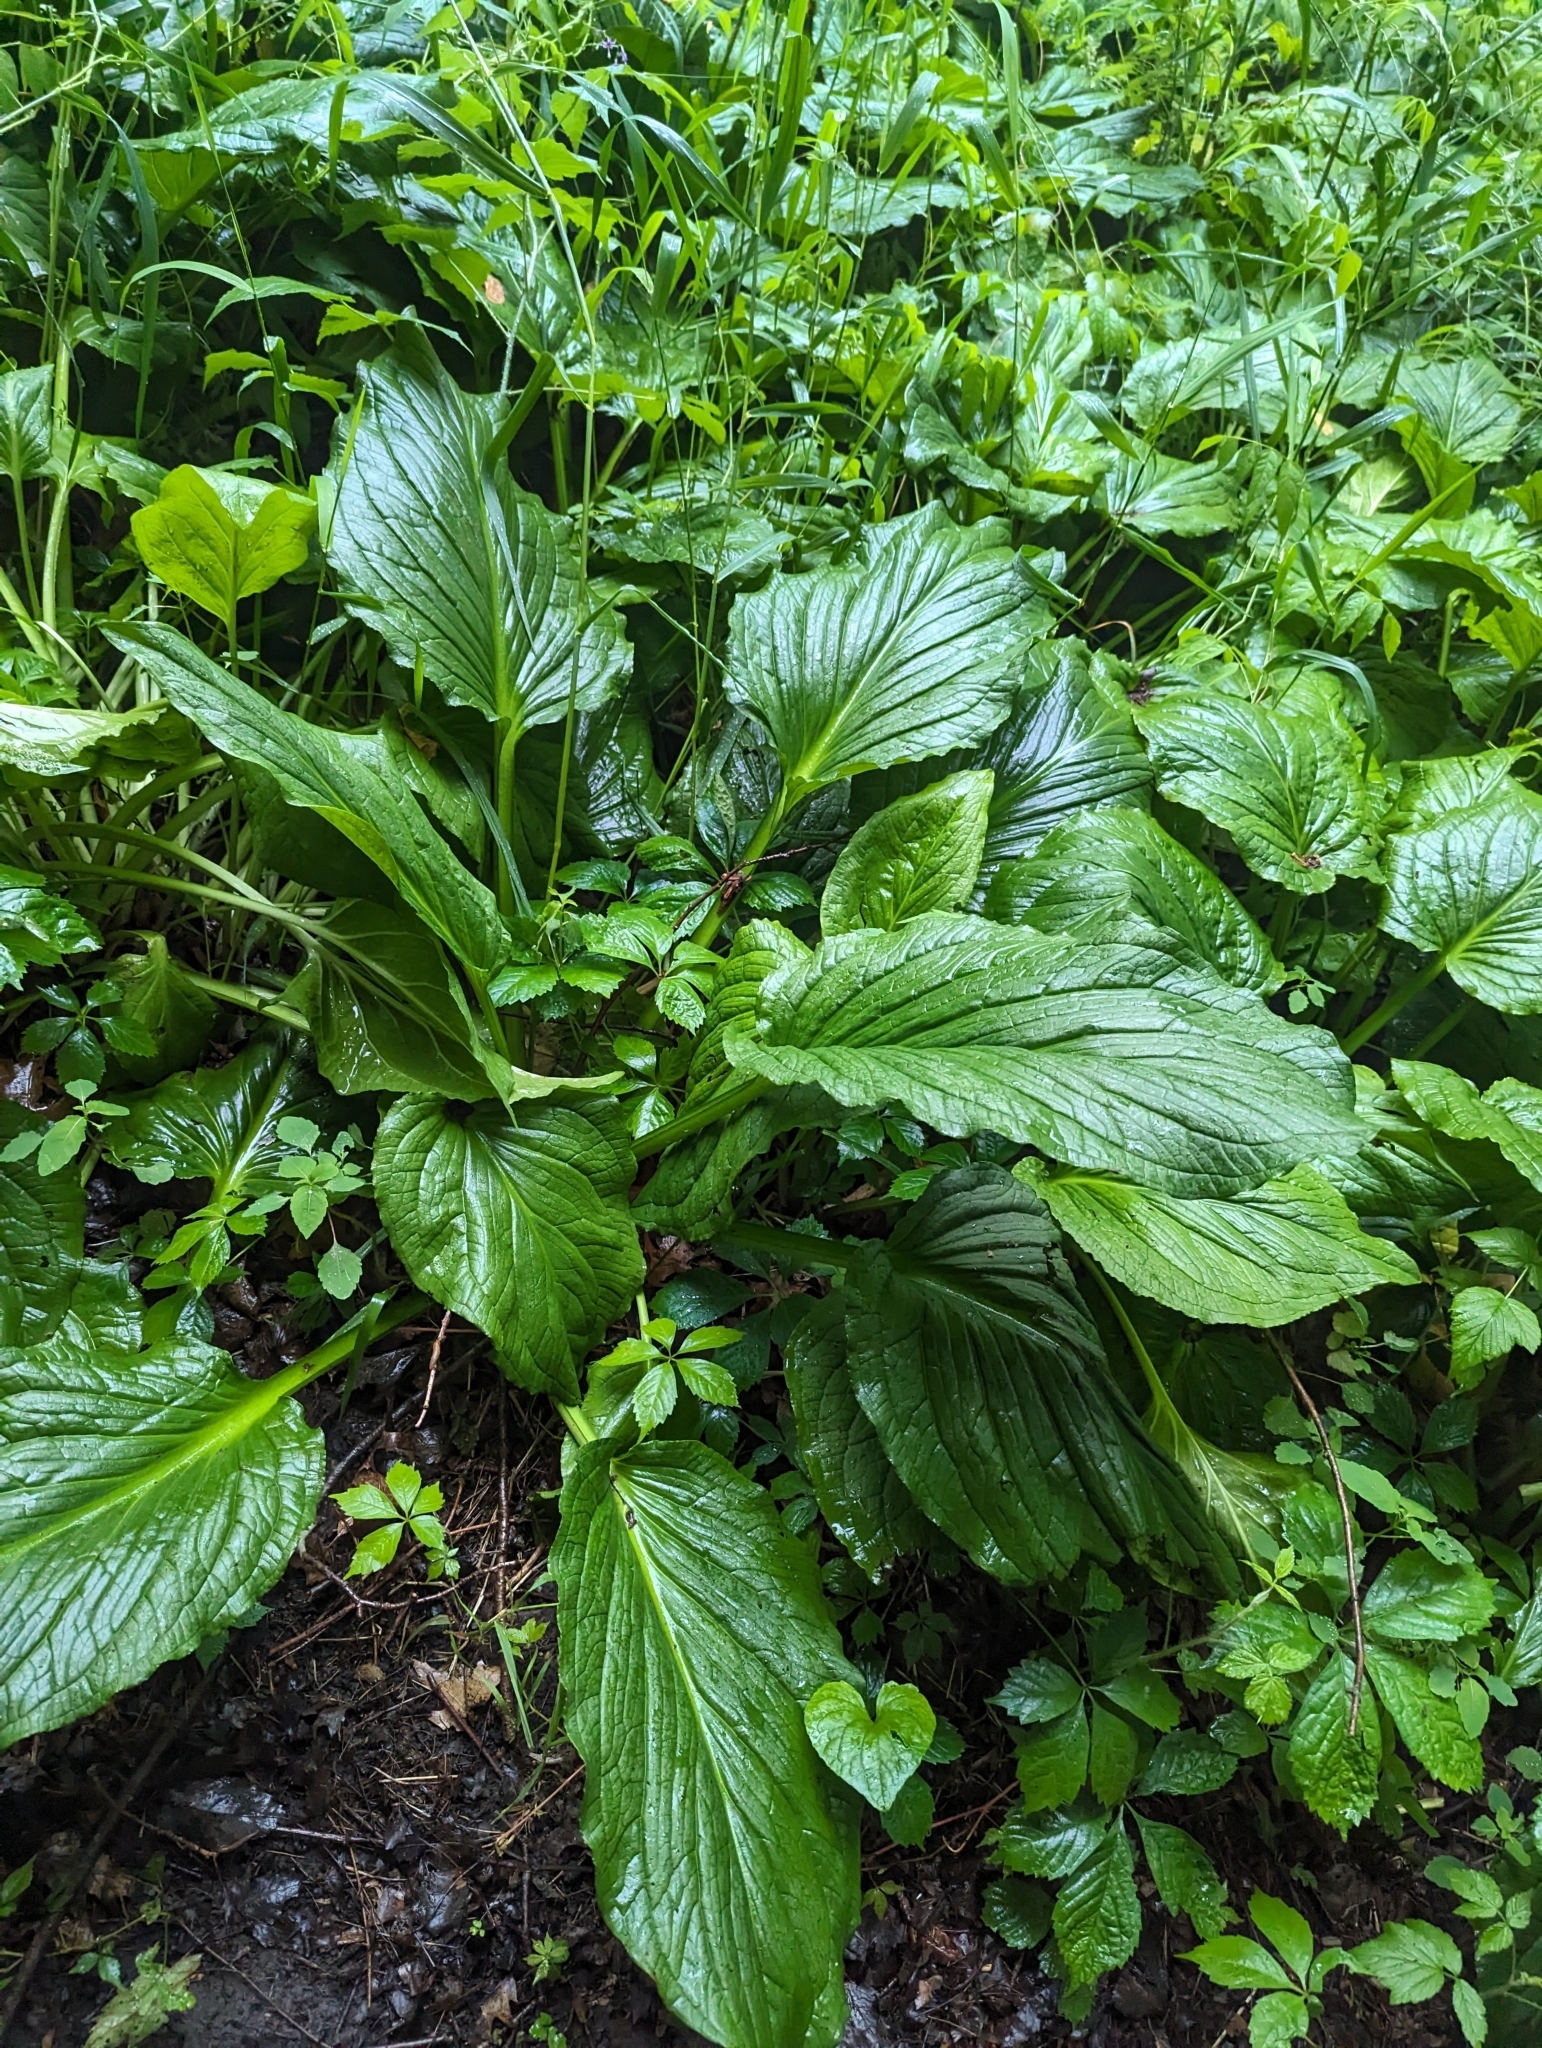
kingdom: Plantae
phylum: Tracheophyta
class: Liliopsida
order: Alismatales
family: Araceae
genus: Symplocarpus
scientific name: Symplocarpus foetidus
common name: Eastern skunk cabbage
